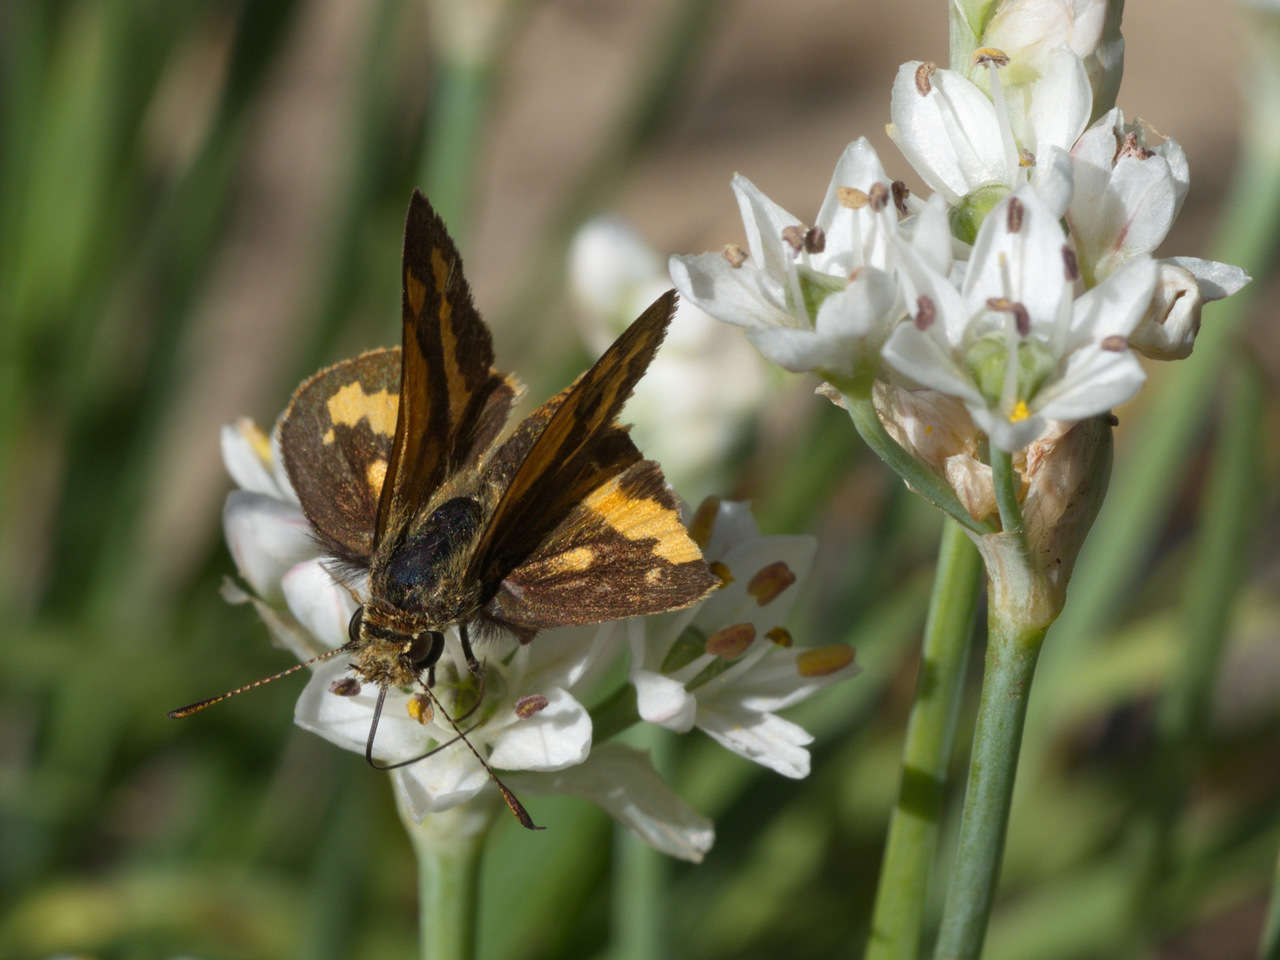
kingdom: Animalia
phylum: Arthropoda
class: Insecta
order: Lepidoptera
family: Hesperiidae
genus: Ocybadistes
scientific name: Ocybadistes walkeri
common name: Yellow-banded dart
